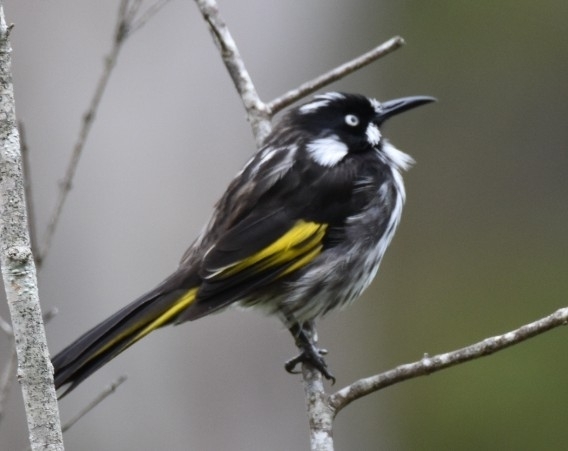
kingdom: Animalia
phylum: Chordata
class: Aves
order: Passeriformes
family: Meliphagidae
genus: Phylidonyris
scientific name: Phylidonyris novaehollandiae
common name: New holland honeyeater
